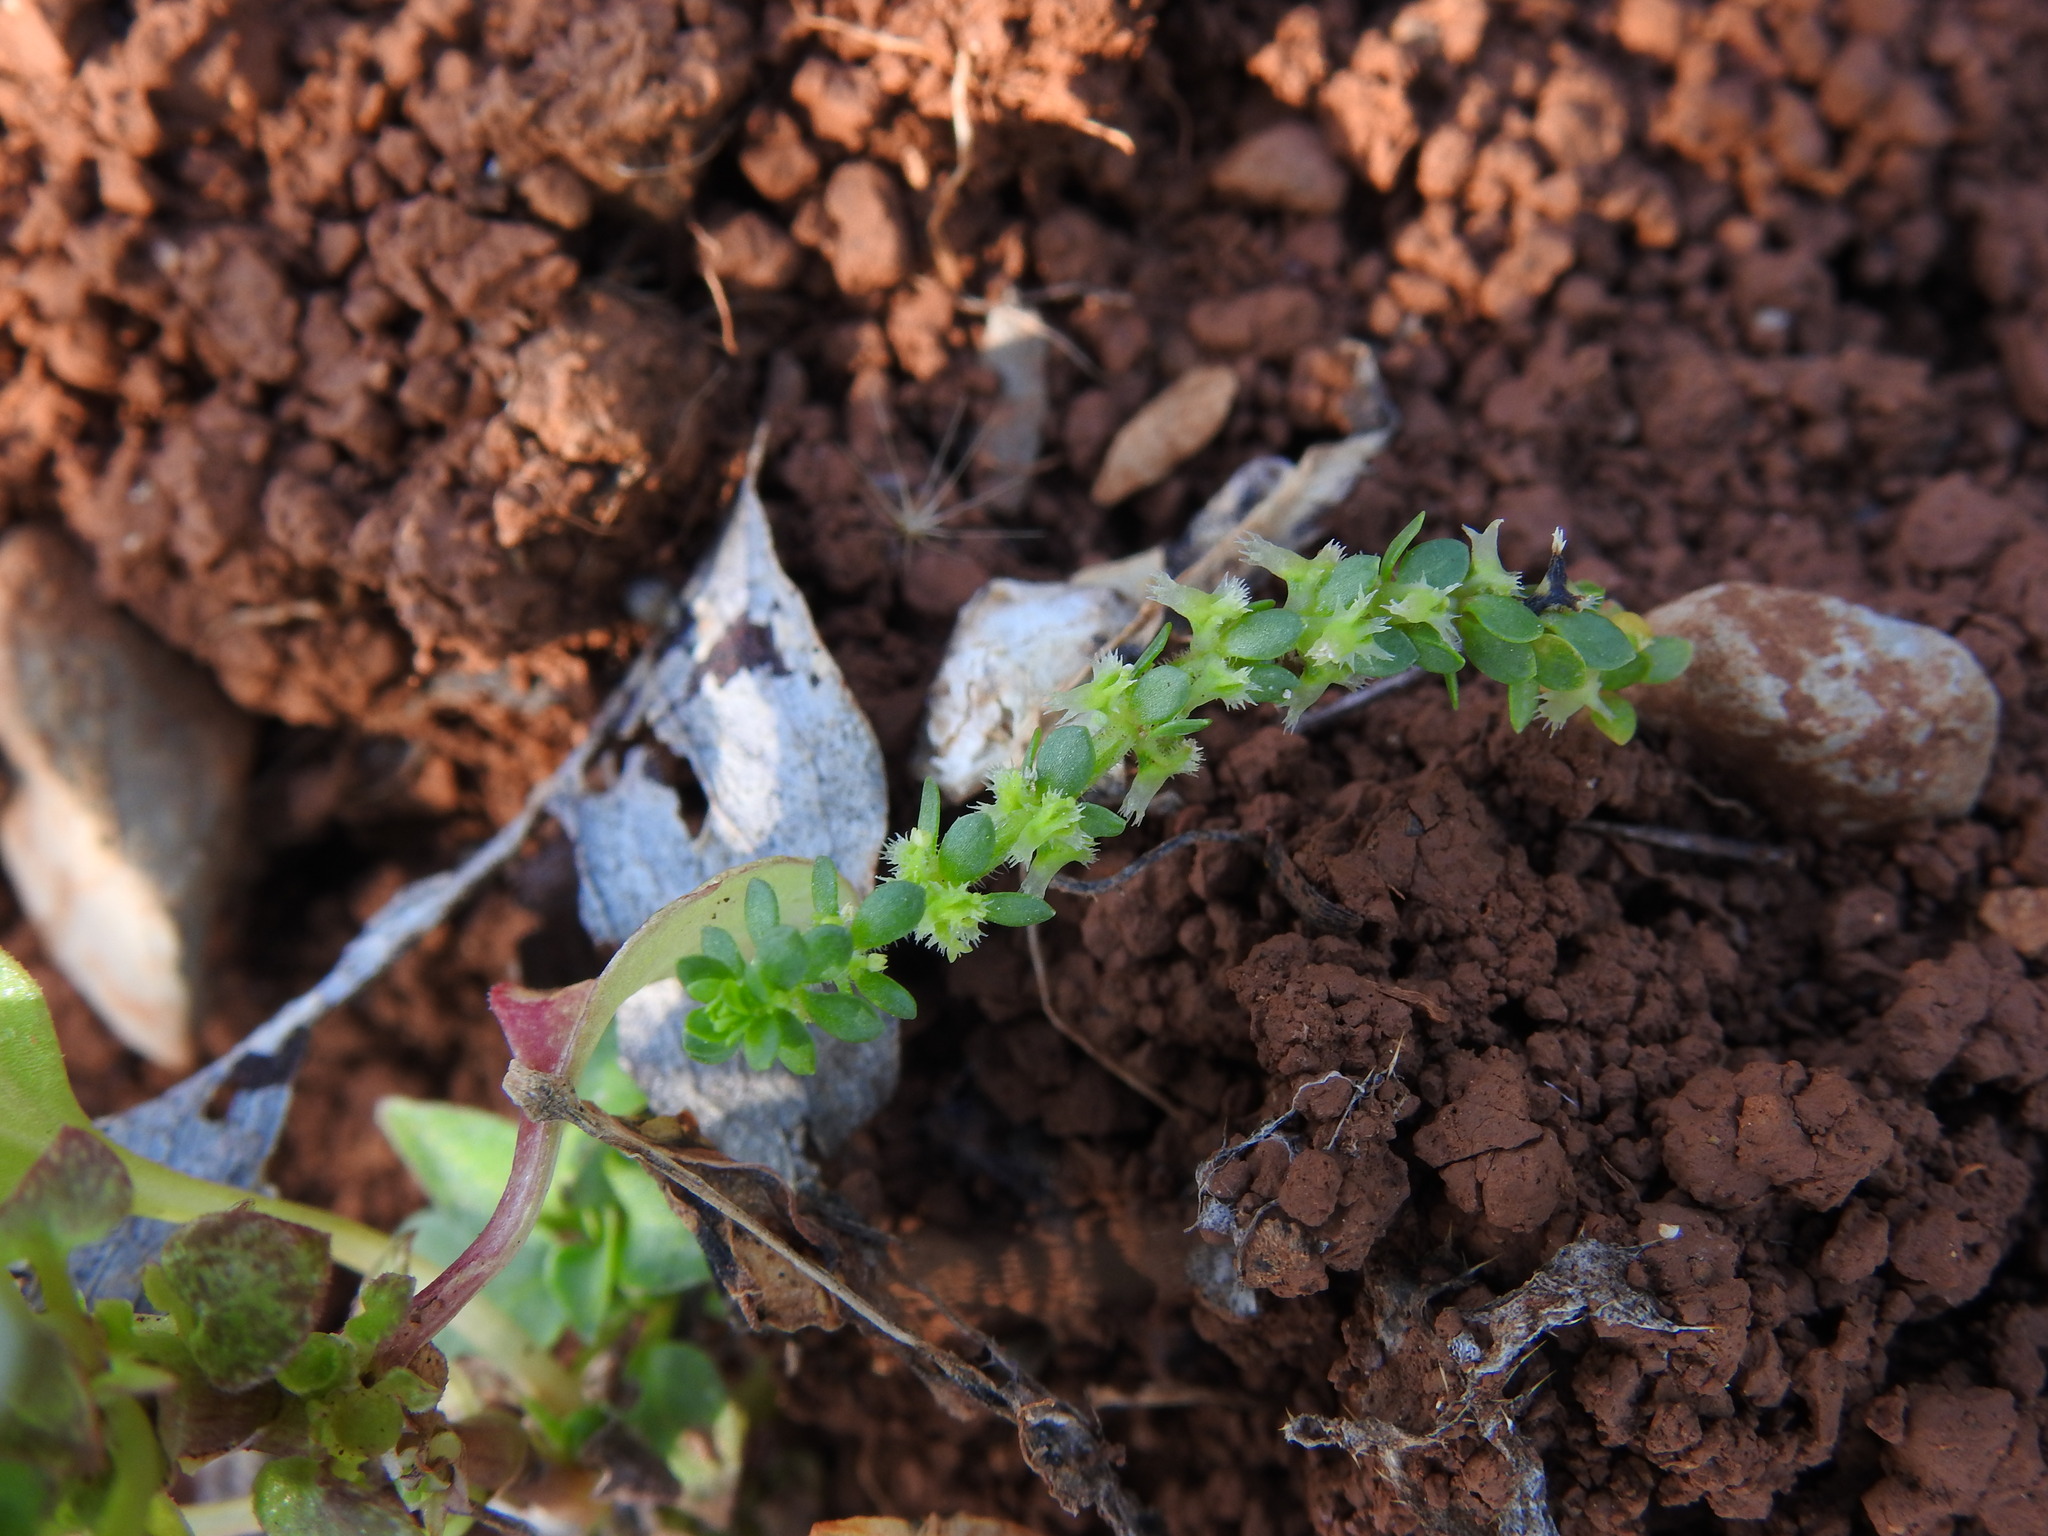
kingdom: Plantae
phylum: Tracheophyta
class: Magnoliopsida
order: Gentianales
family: Rubiaceae
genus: Valantia
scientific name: Valantia muralis
